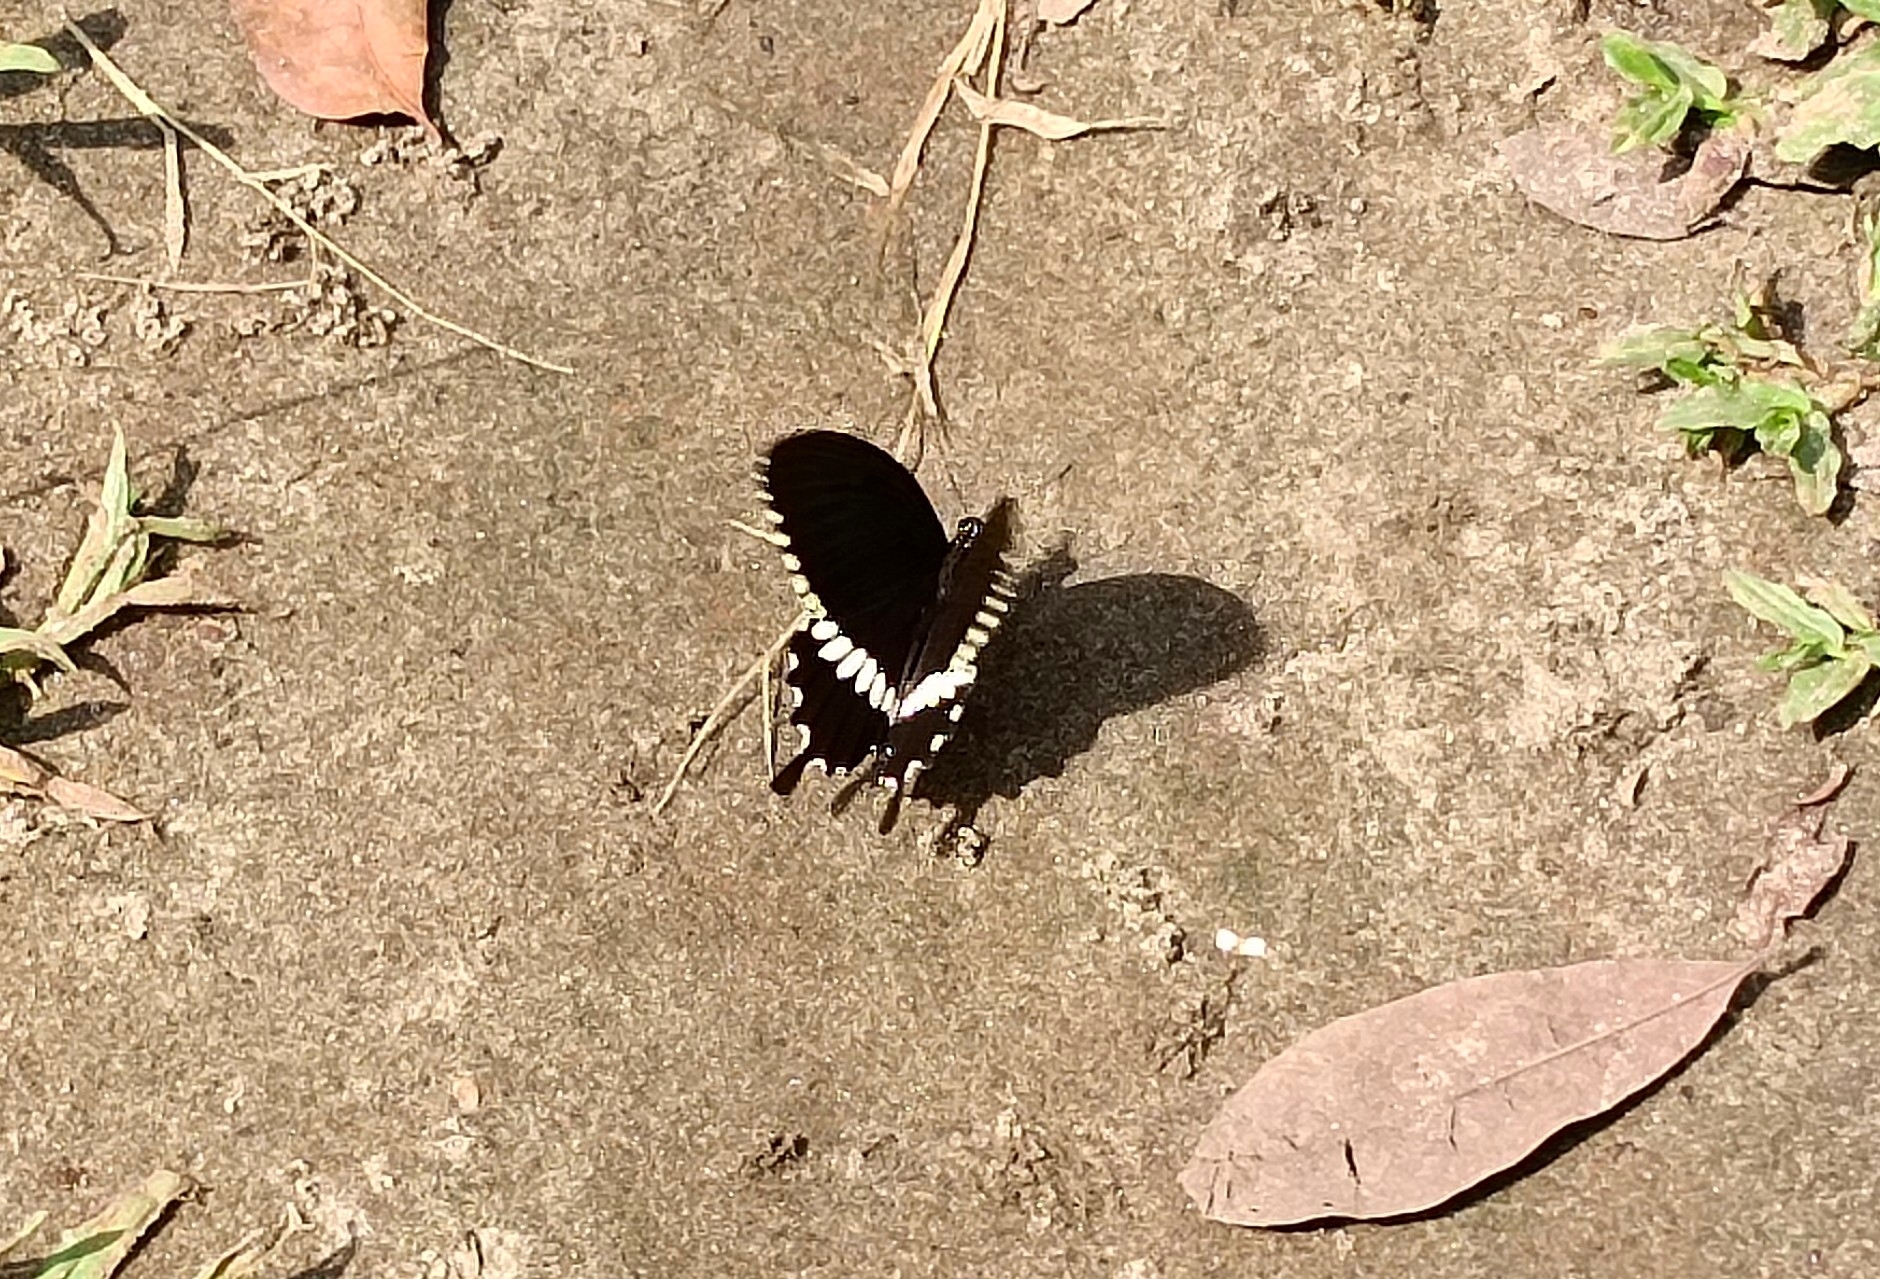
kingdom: Animalia
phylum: Arthropoda
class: Insecta
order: Lepidoptera
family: Papilionidae
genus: Papilio
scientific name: Papilio polytes
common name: Common mormon
